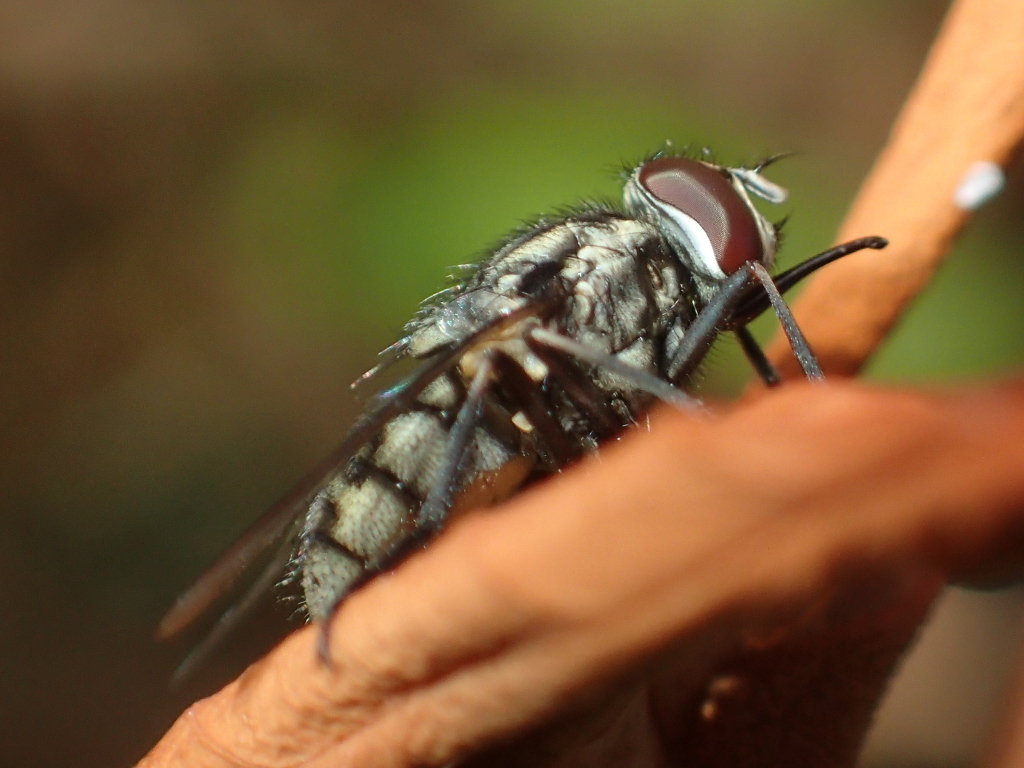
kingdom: Animalia
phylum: Arthropoda
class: Insecta
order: Diptera
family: Muscidae
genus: Stomoxys
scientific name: Stomoxys calcitrans
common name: Stable fly
